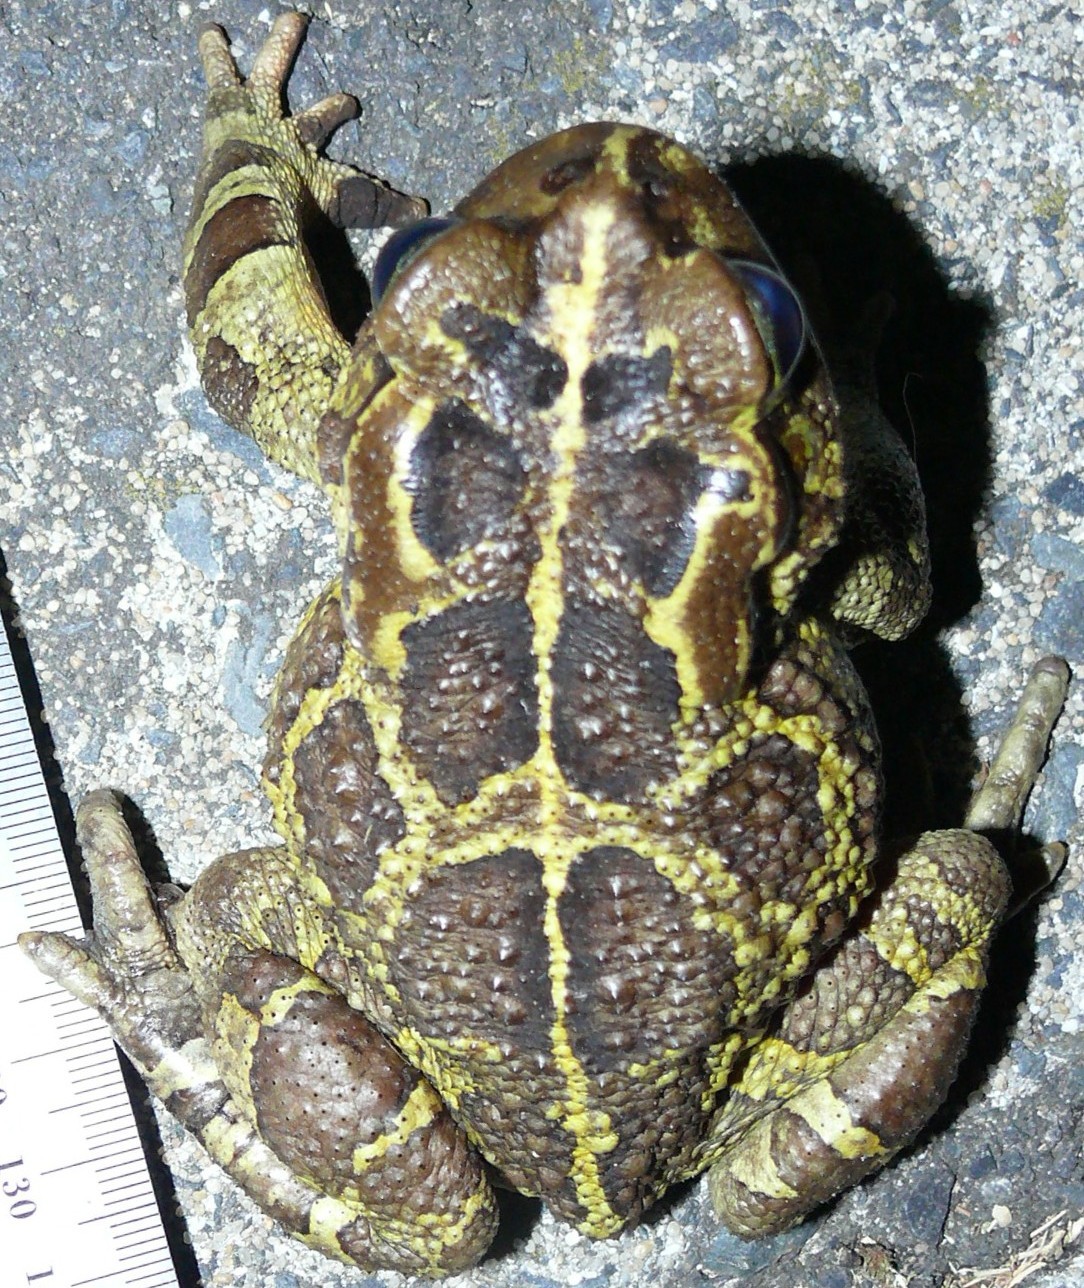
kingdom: Animalia
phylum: Chordata
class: Amphibia
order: Anura
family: Bufonidae
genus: Sclerophrys
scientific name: Sclerophrys pantherina
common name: Panther toad
